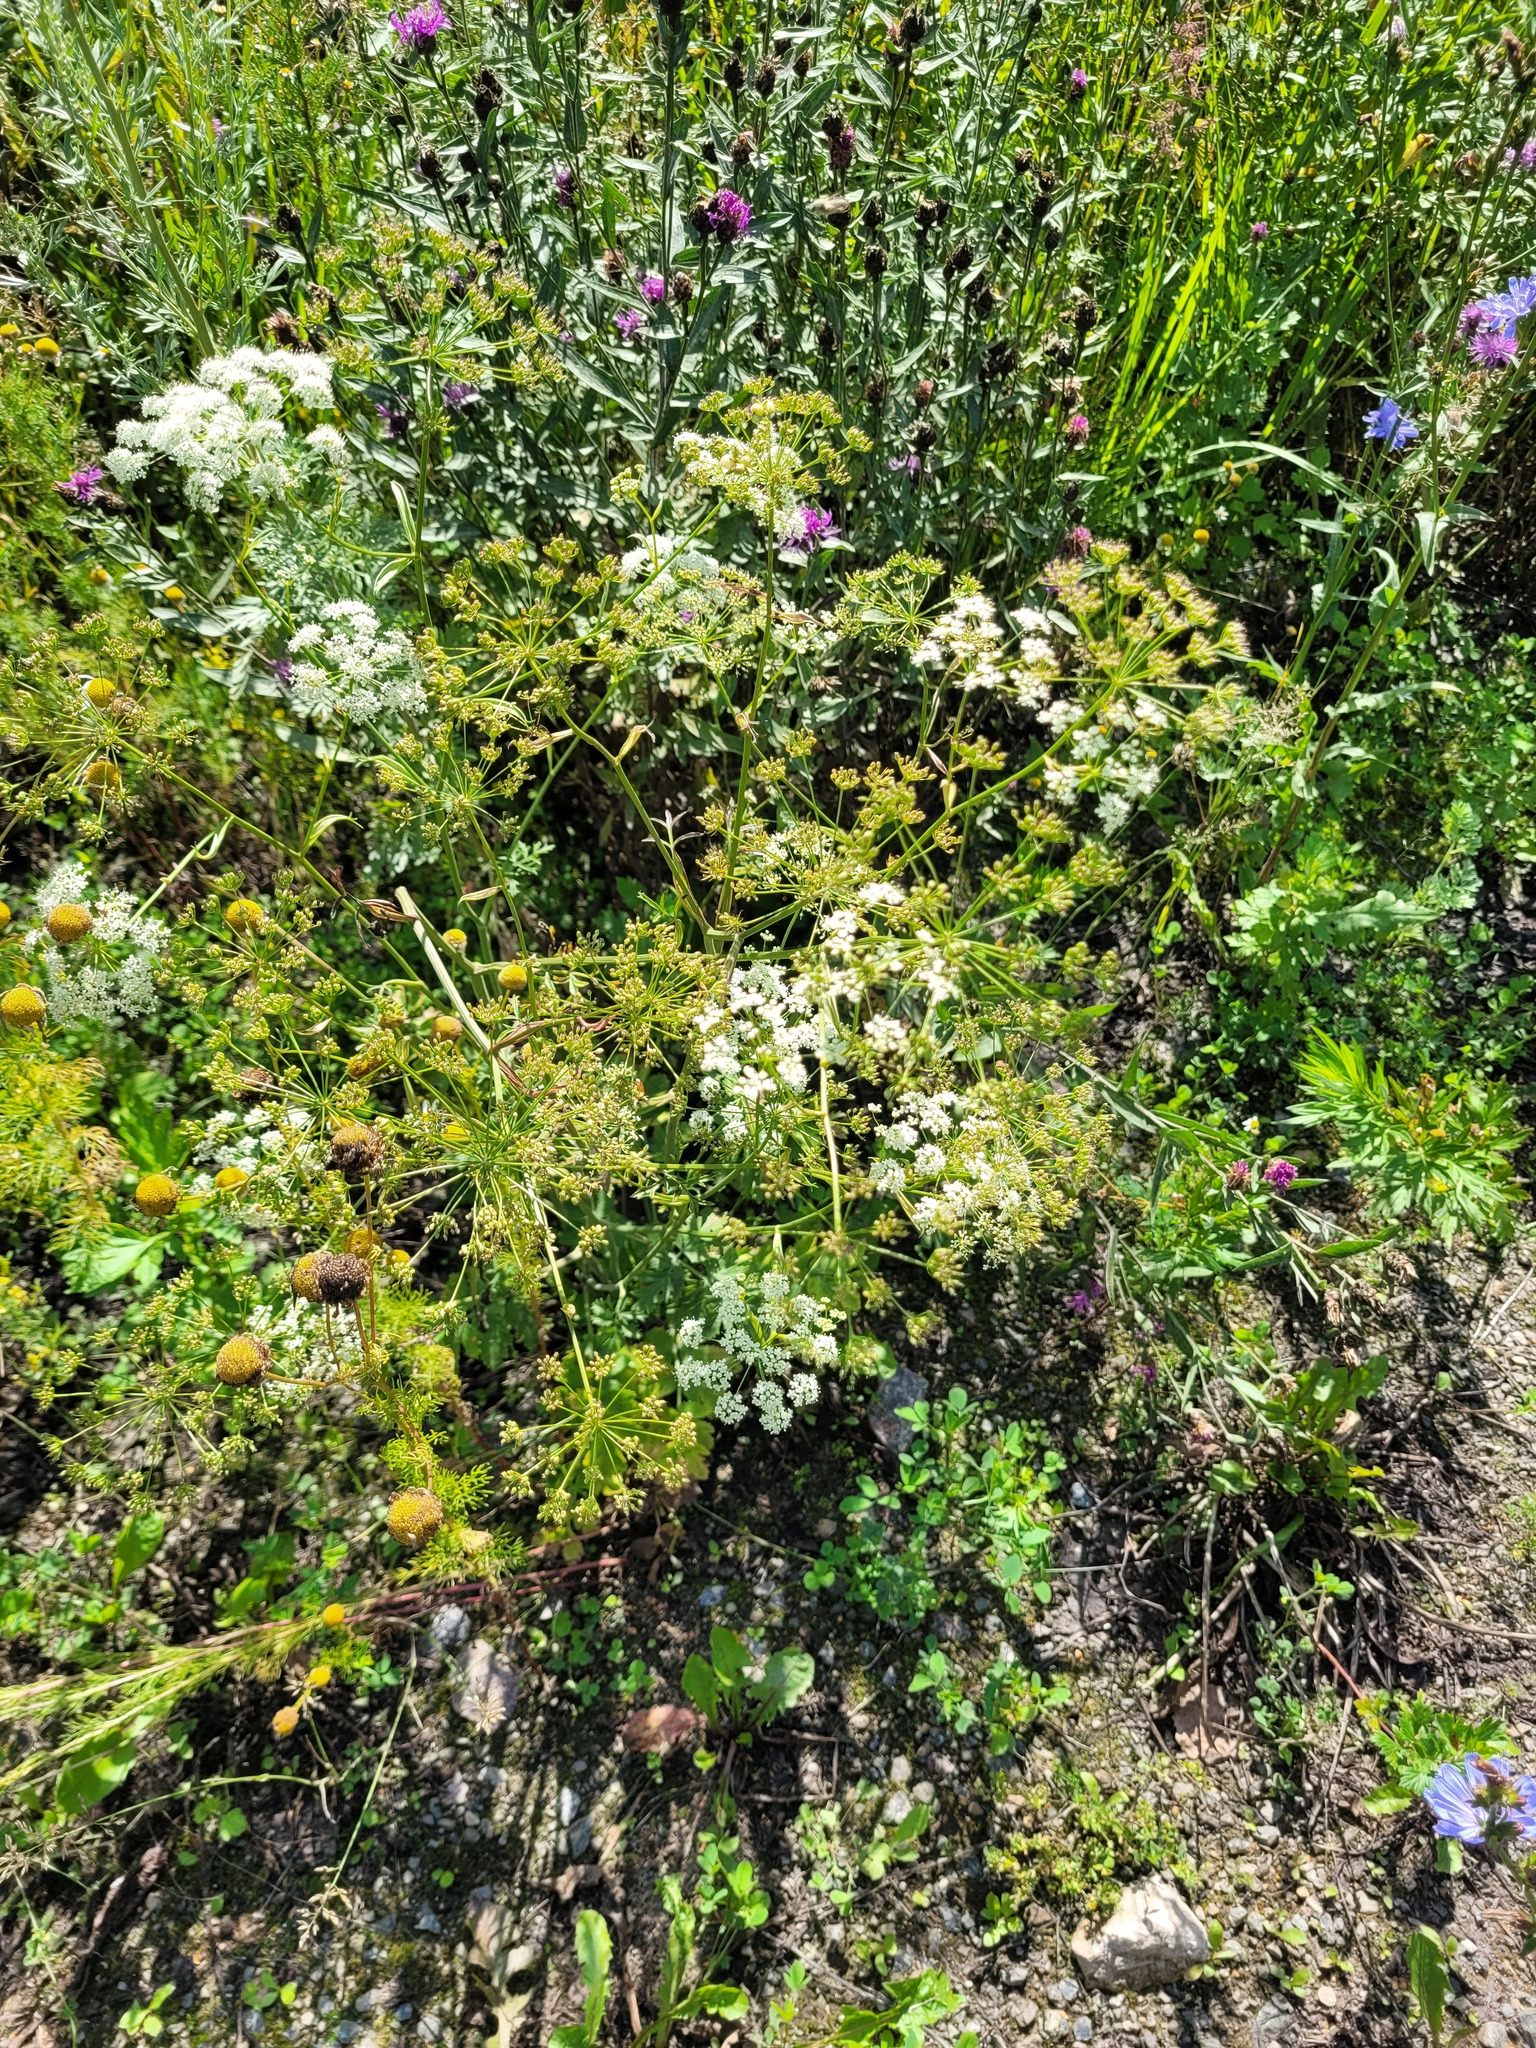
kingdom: Plantae
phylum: Tracheophyta
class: Magnoliopsida
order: Apiales
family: Apiaceae
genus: Pimpinella
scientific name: Pimpinella saxifraga
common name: Burnet-saxifrage
